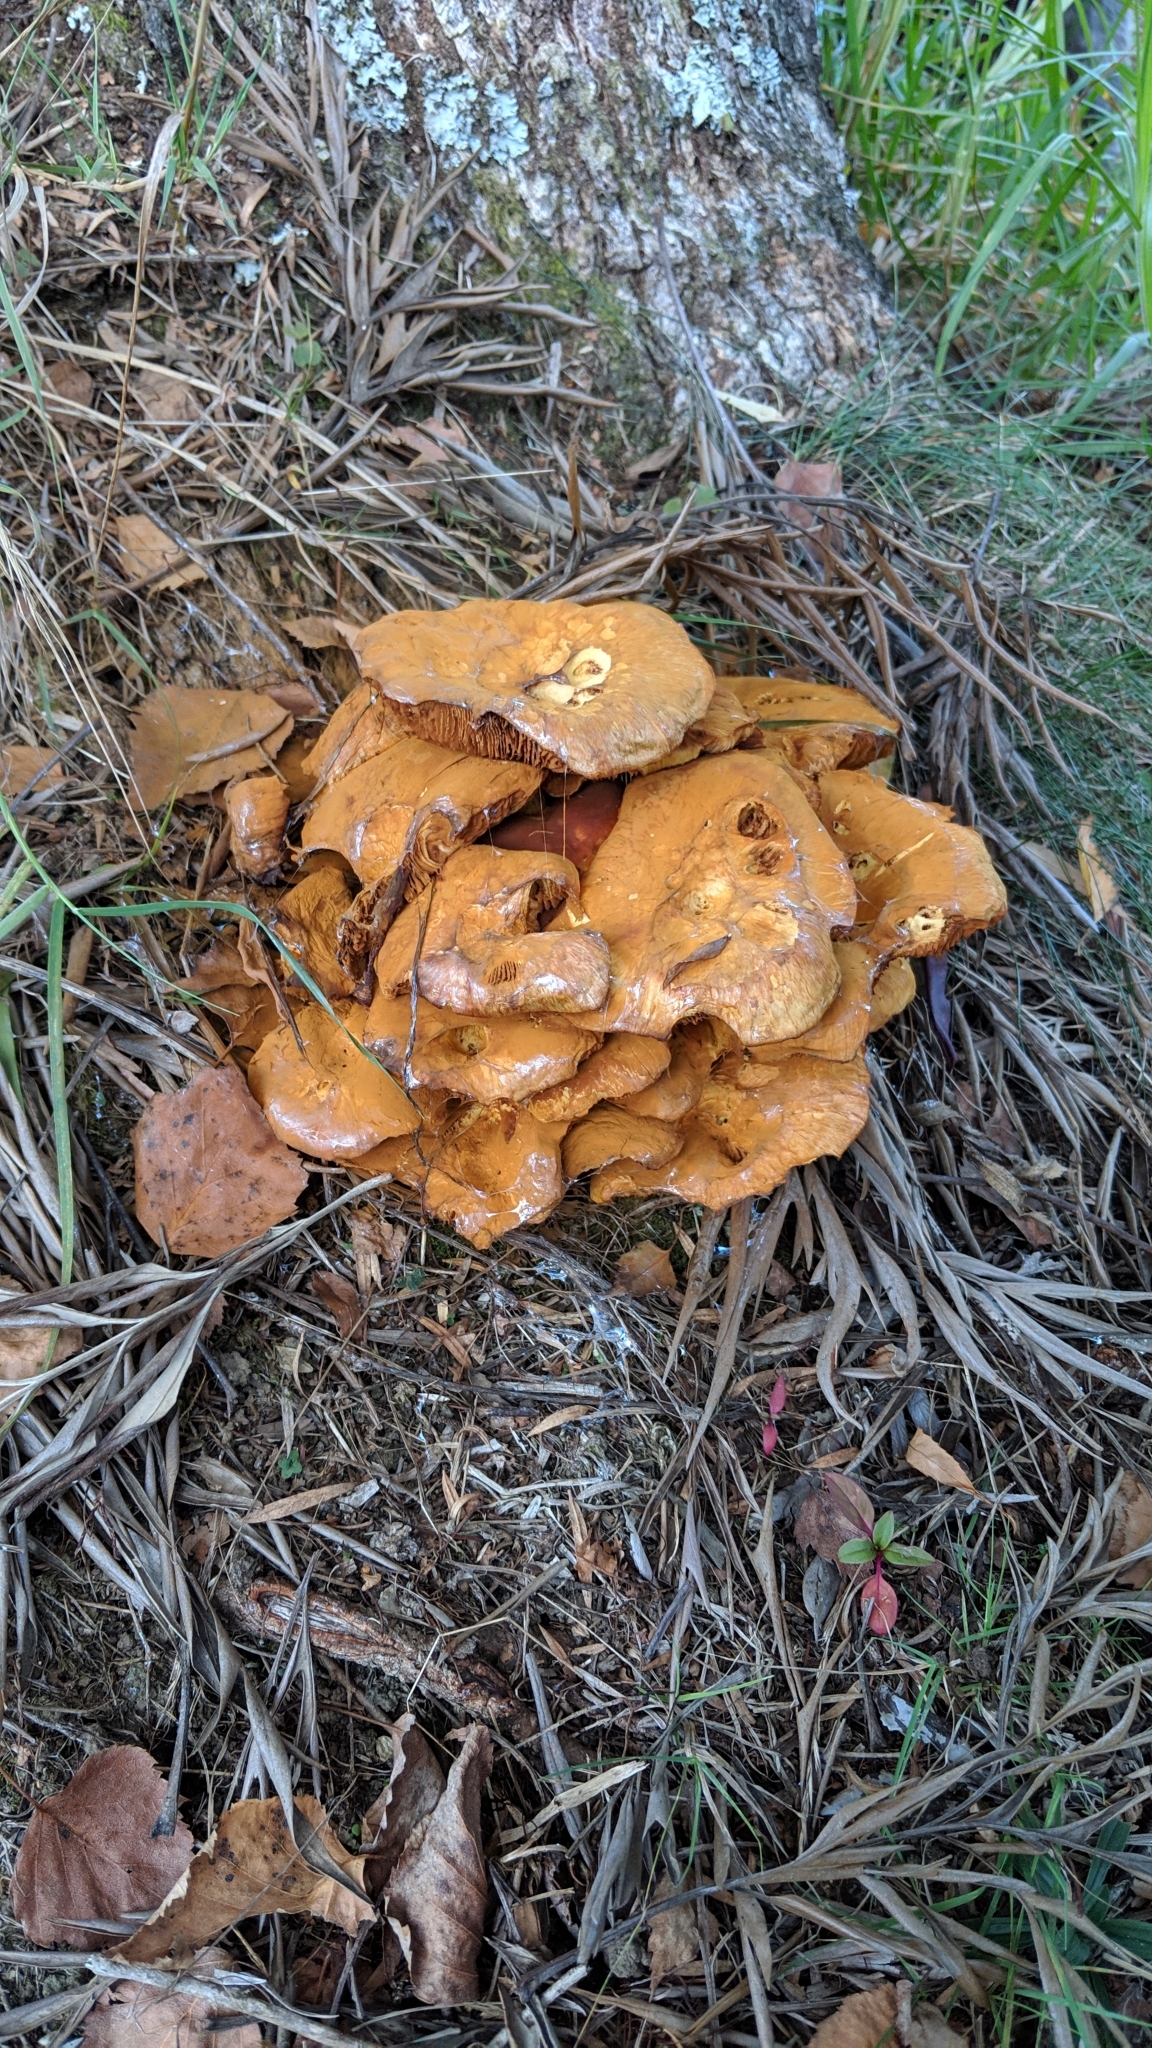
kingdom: Fungi
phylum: Basidiomycota
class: Agaricomycetes
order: Agaricales
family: Hymenogastraceae
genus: Gymnopilus
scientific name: Gymnopilus junonius
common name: Spectacular rustgill
